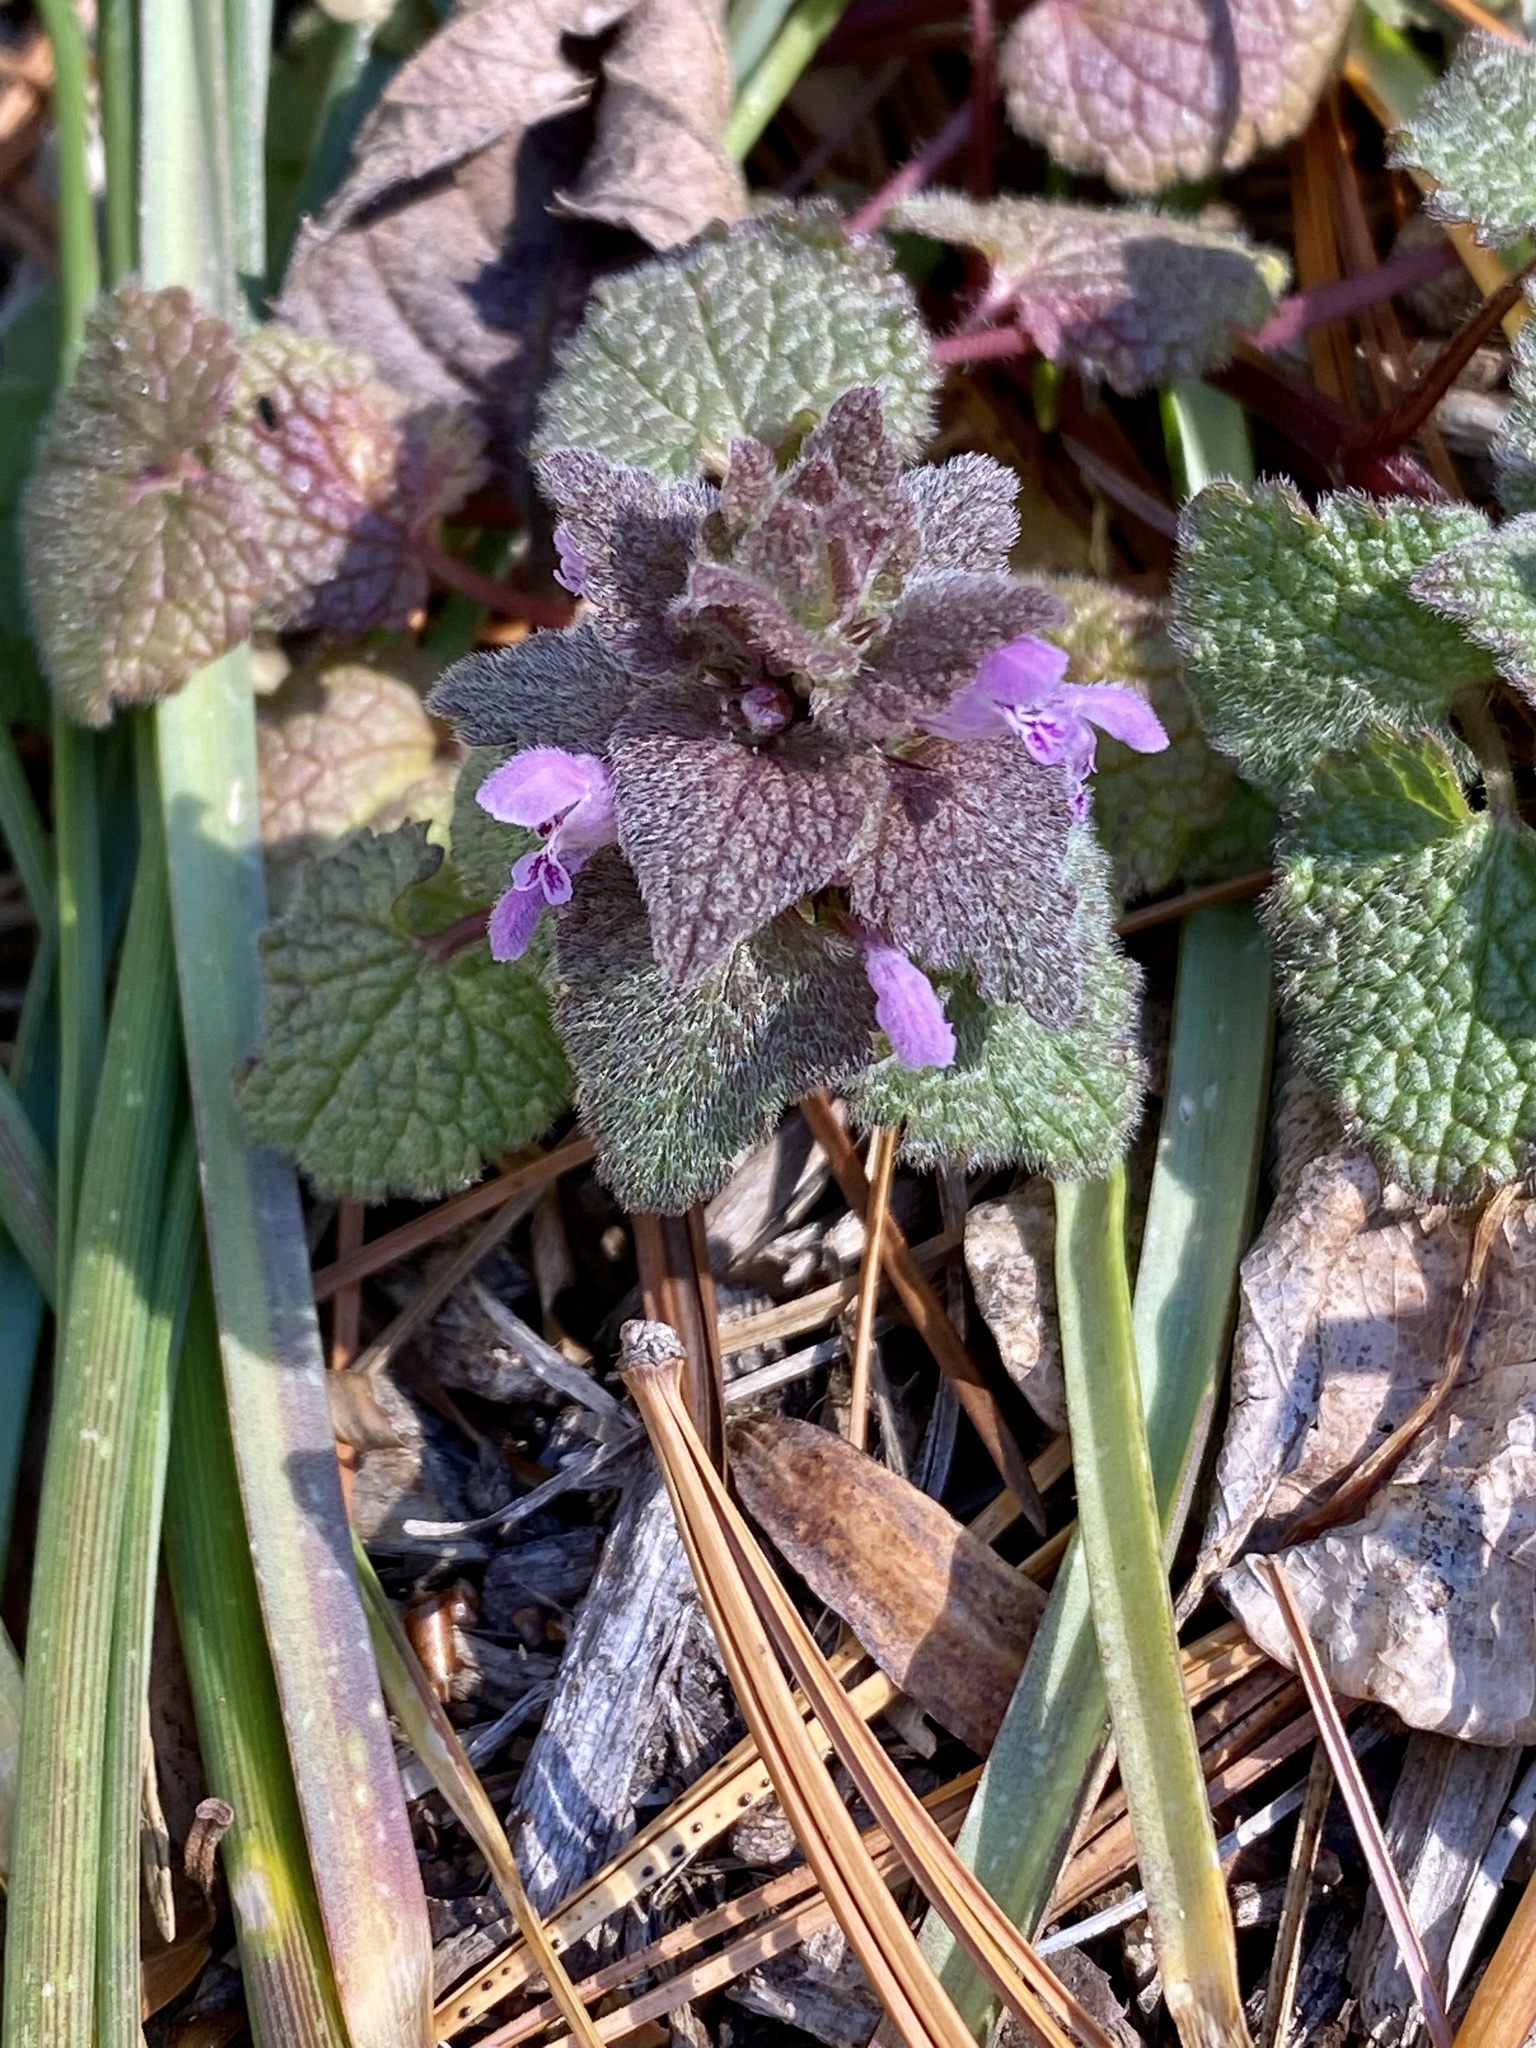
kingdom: Plantae
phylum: Tracheophyta
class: Magnoliopsida
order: Lamiales
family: Lamiaceae
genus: Lamium
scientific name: Lamium purpureum
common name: Red dead-nettle
